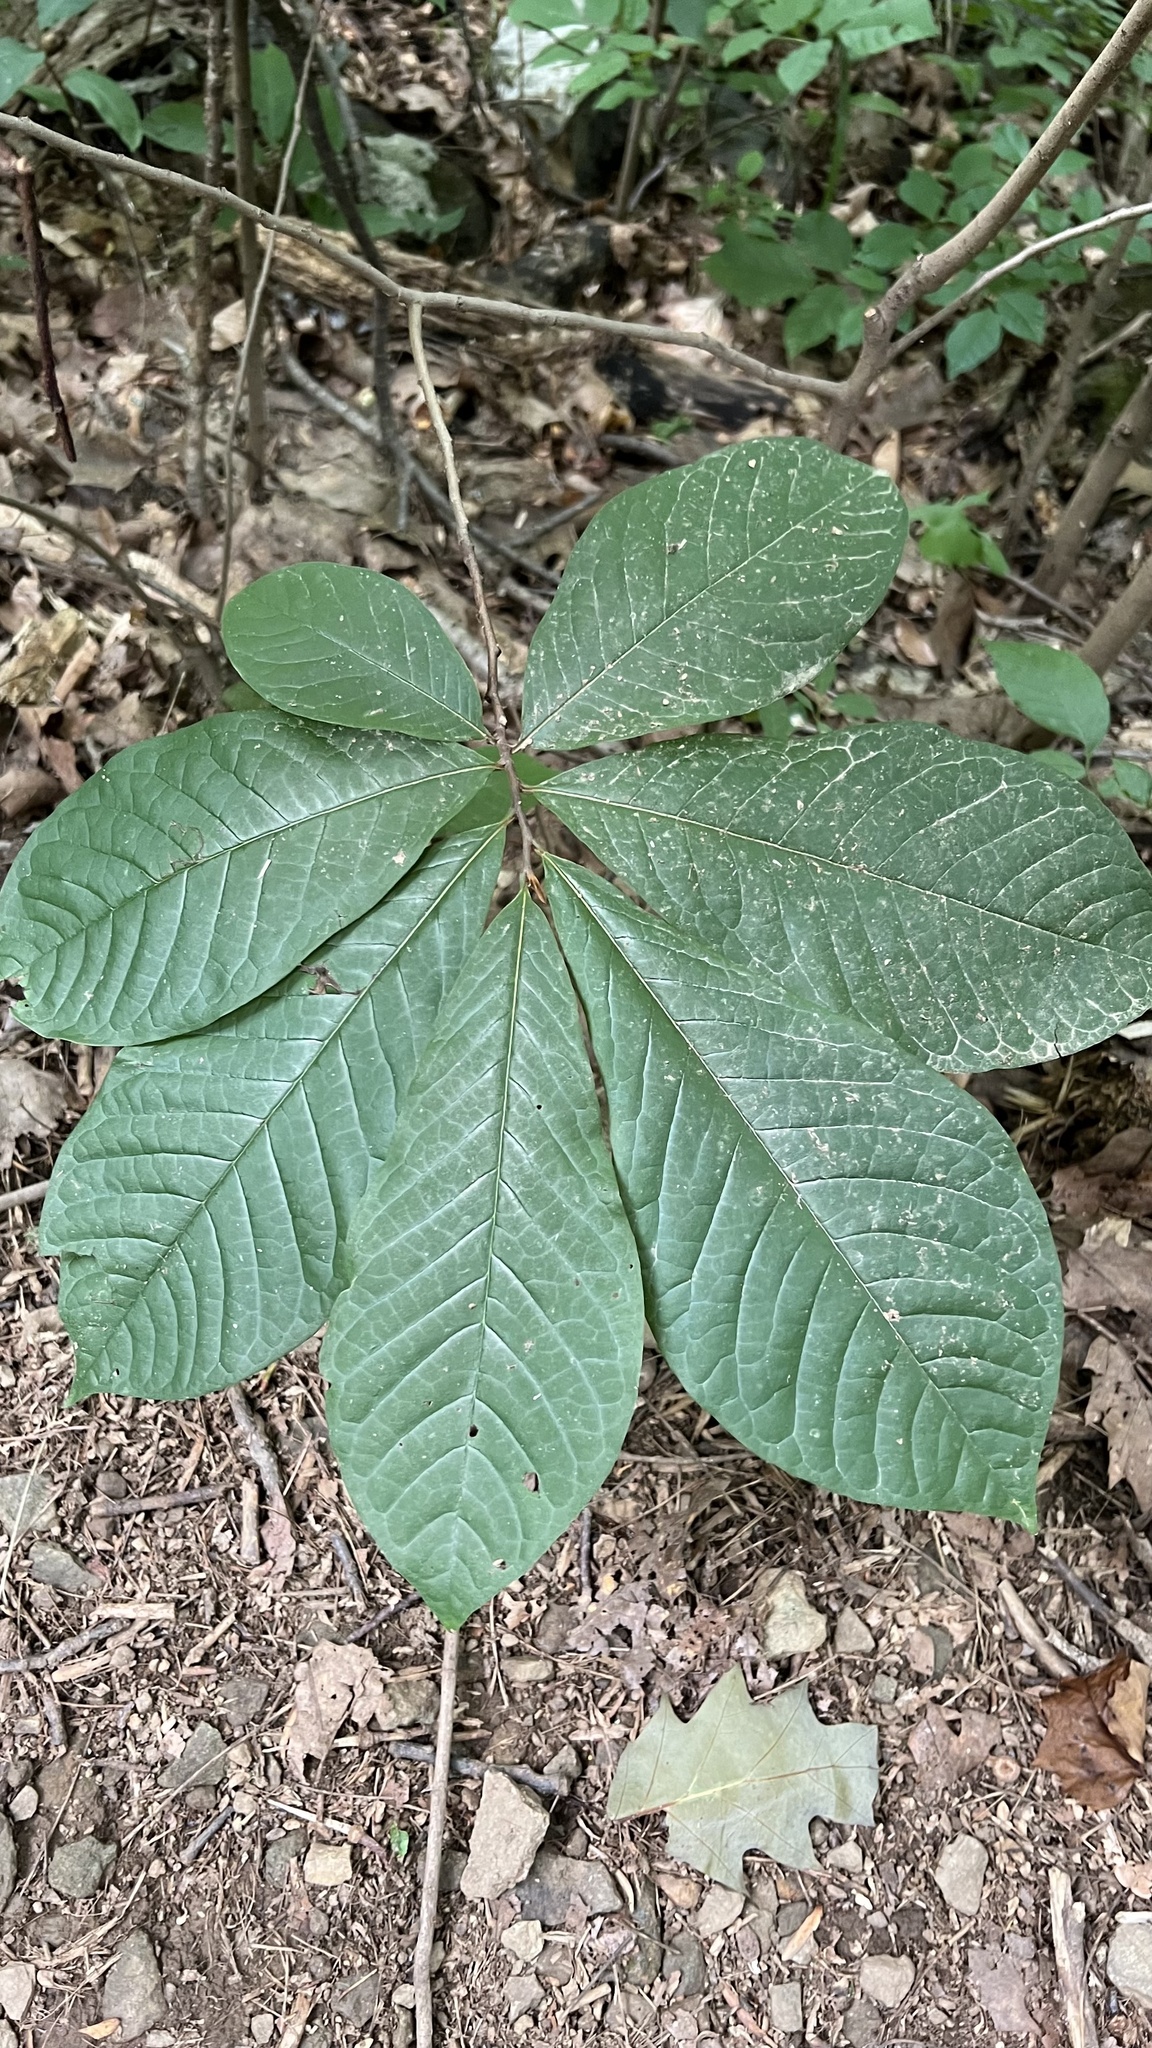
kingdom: Plantae
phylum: Tracheophyta
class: Magnoliopsida
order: Magnoliales
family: Annonaceae
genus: Asimina
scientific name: Asimina triloba
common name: Dog-banana
